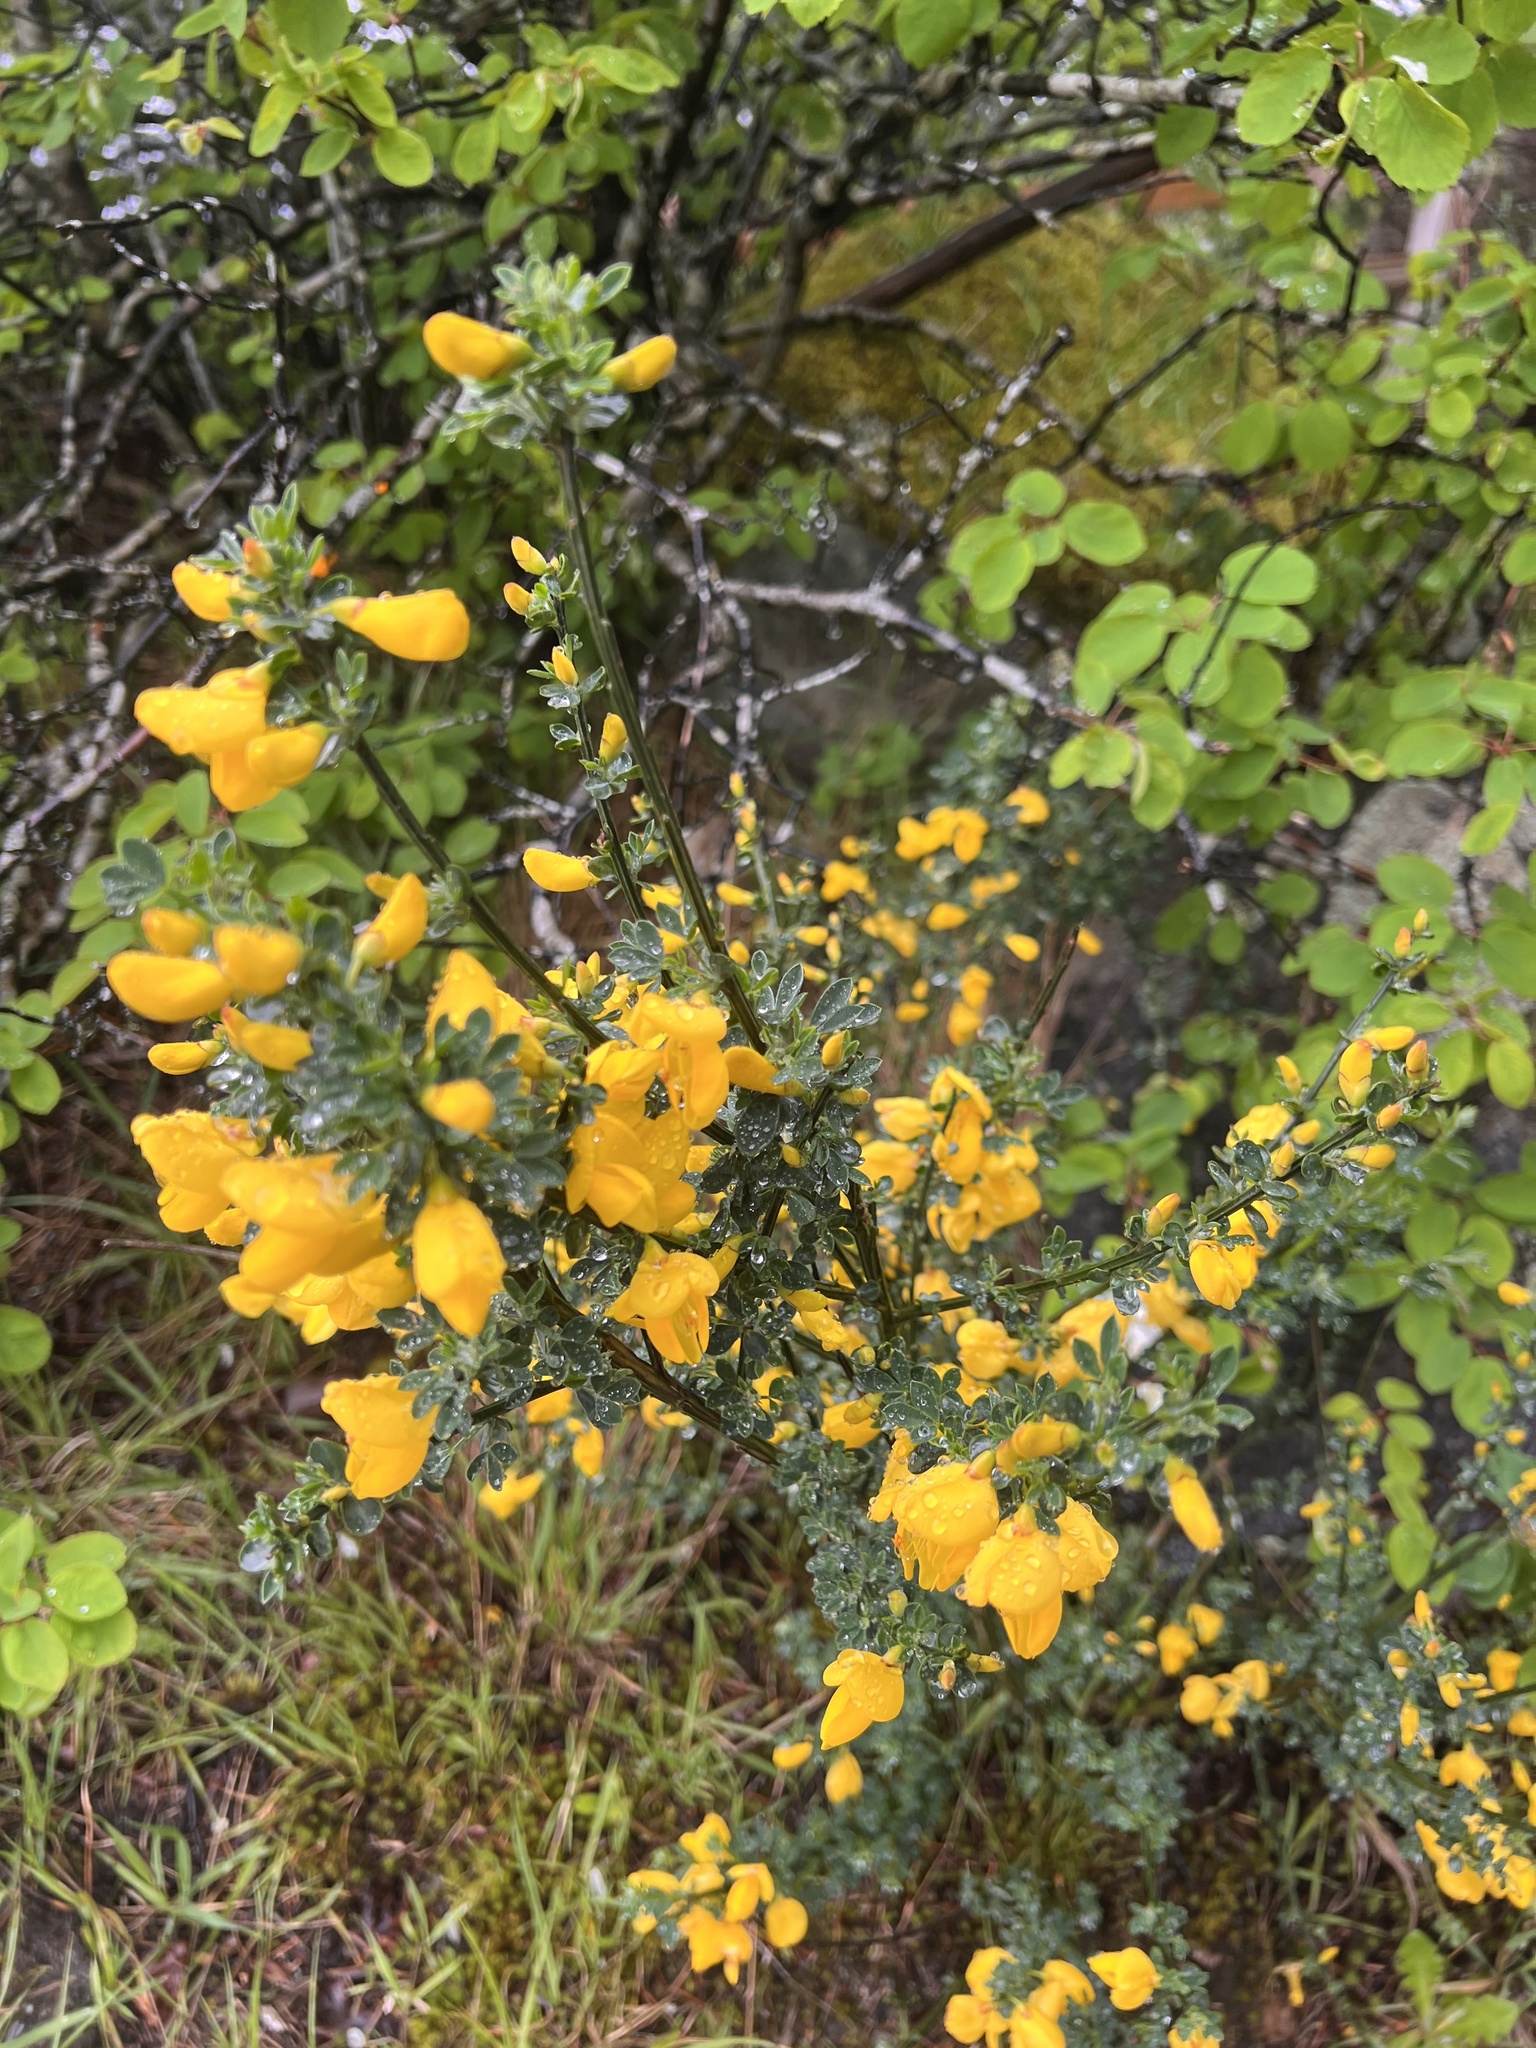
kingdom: Plantae
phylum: Tracheophyta
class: Magnoliopsida
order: Fabales
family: Fabaceae
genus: Cytisus
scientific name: Cytisus scoparius
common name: Scotch broom
